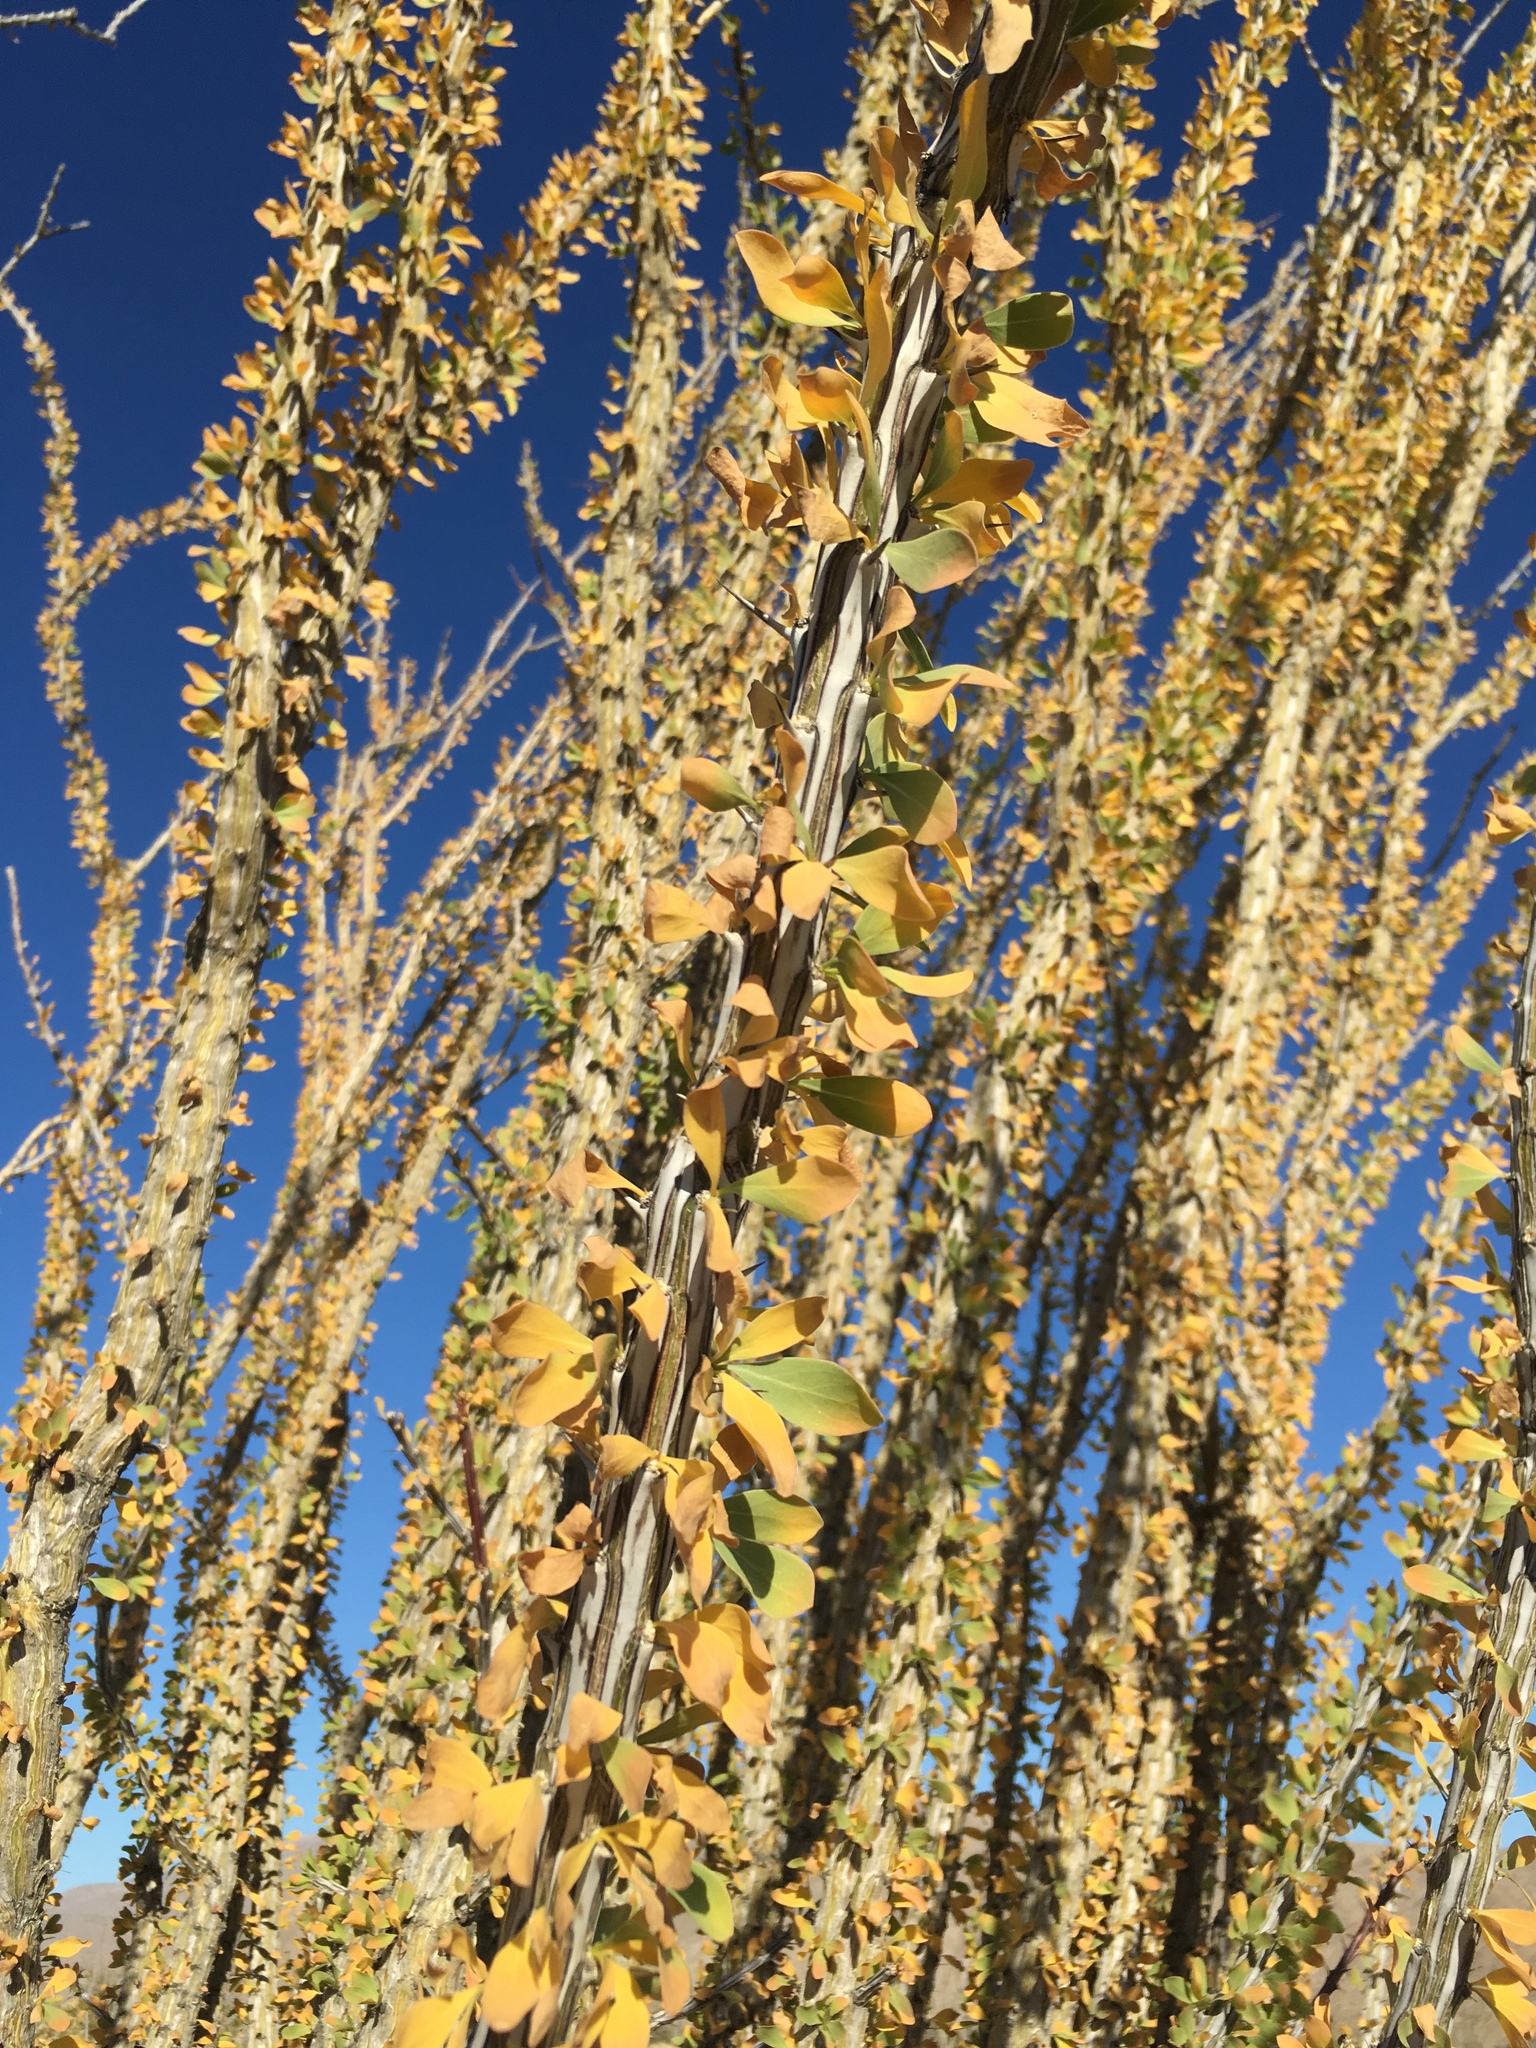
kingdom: Plantae
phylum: Tracheophyta
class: Magnoliopsida
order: Ericales
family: Fouquieriaceae
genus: Fouquieria
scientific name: Fouquieria splendens
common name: Vine-cactus
